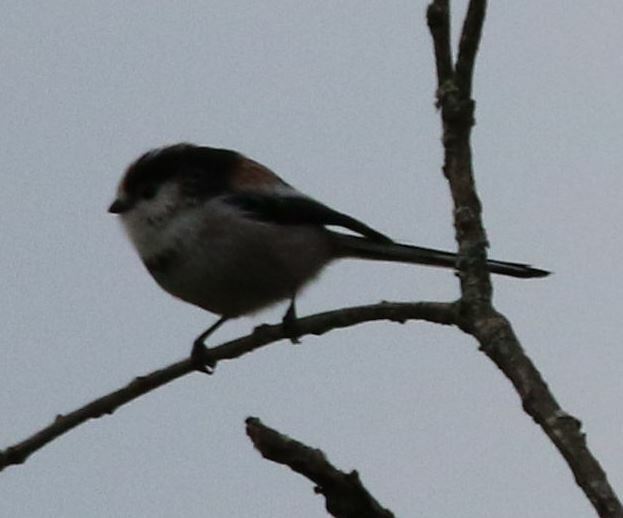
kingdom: Animalia
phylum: Chordata
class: Aves
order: Passeriformes
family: Aegithalidae
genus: Aegithalos
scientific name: Aegithalos caudatus
